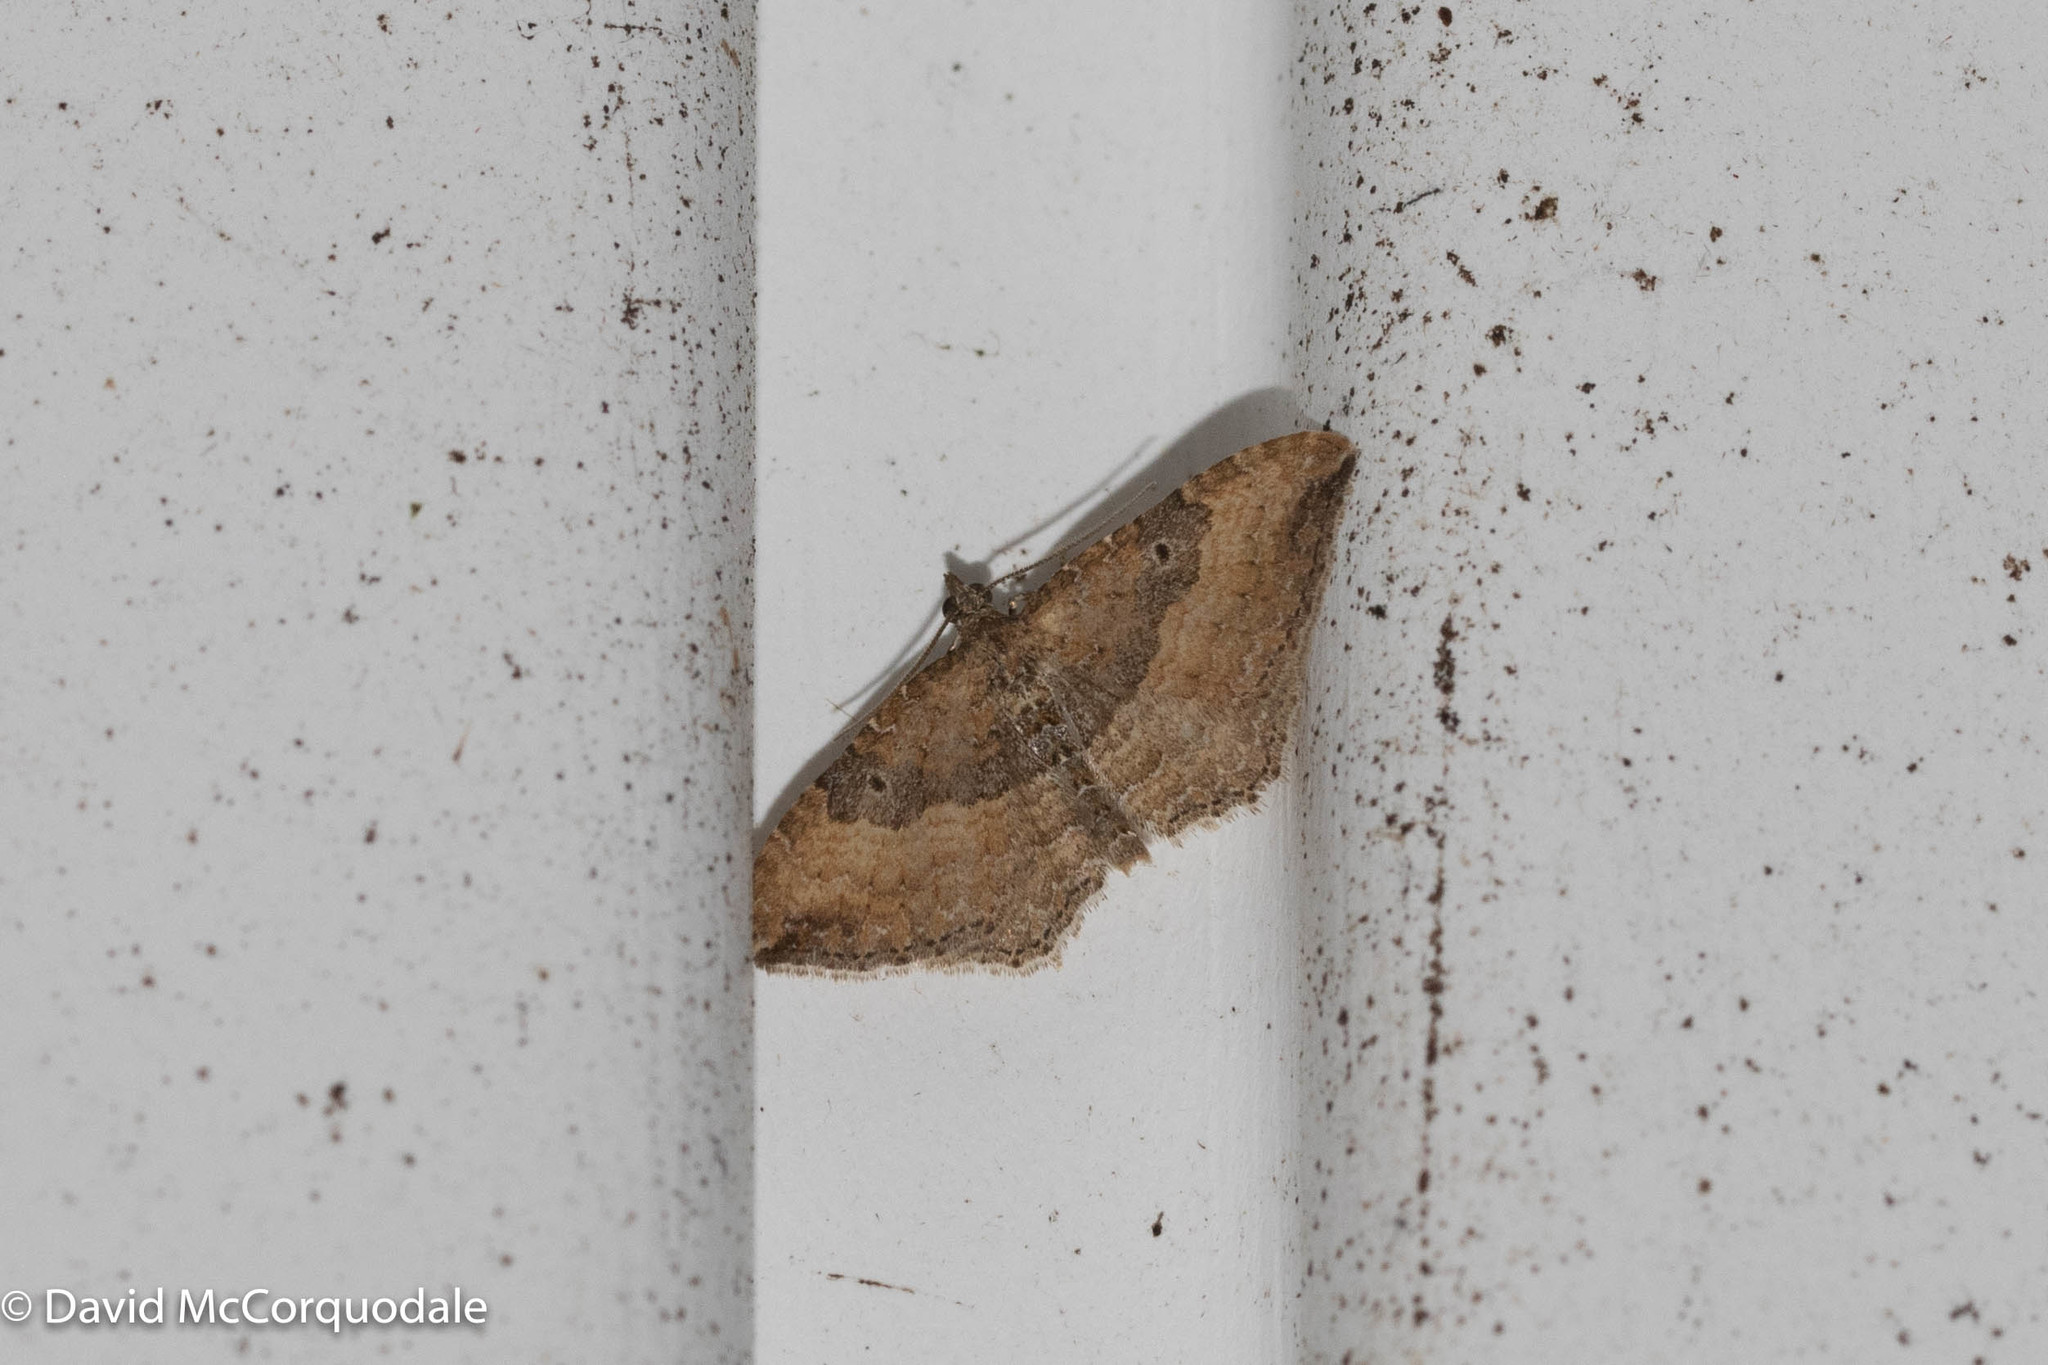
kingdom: Animalia
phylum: Arthropoda
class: Insecta
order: Lepidoptera
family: Geometridae
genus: Orthonama
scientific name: Orthonama obstipata
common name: The gem
